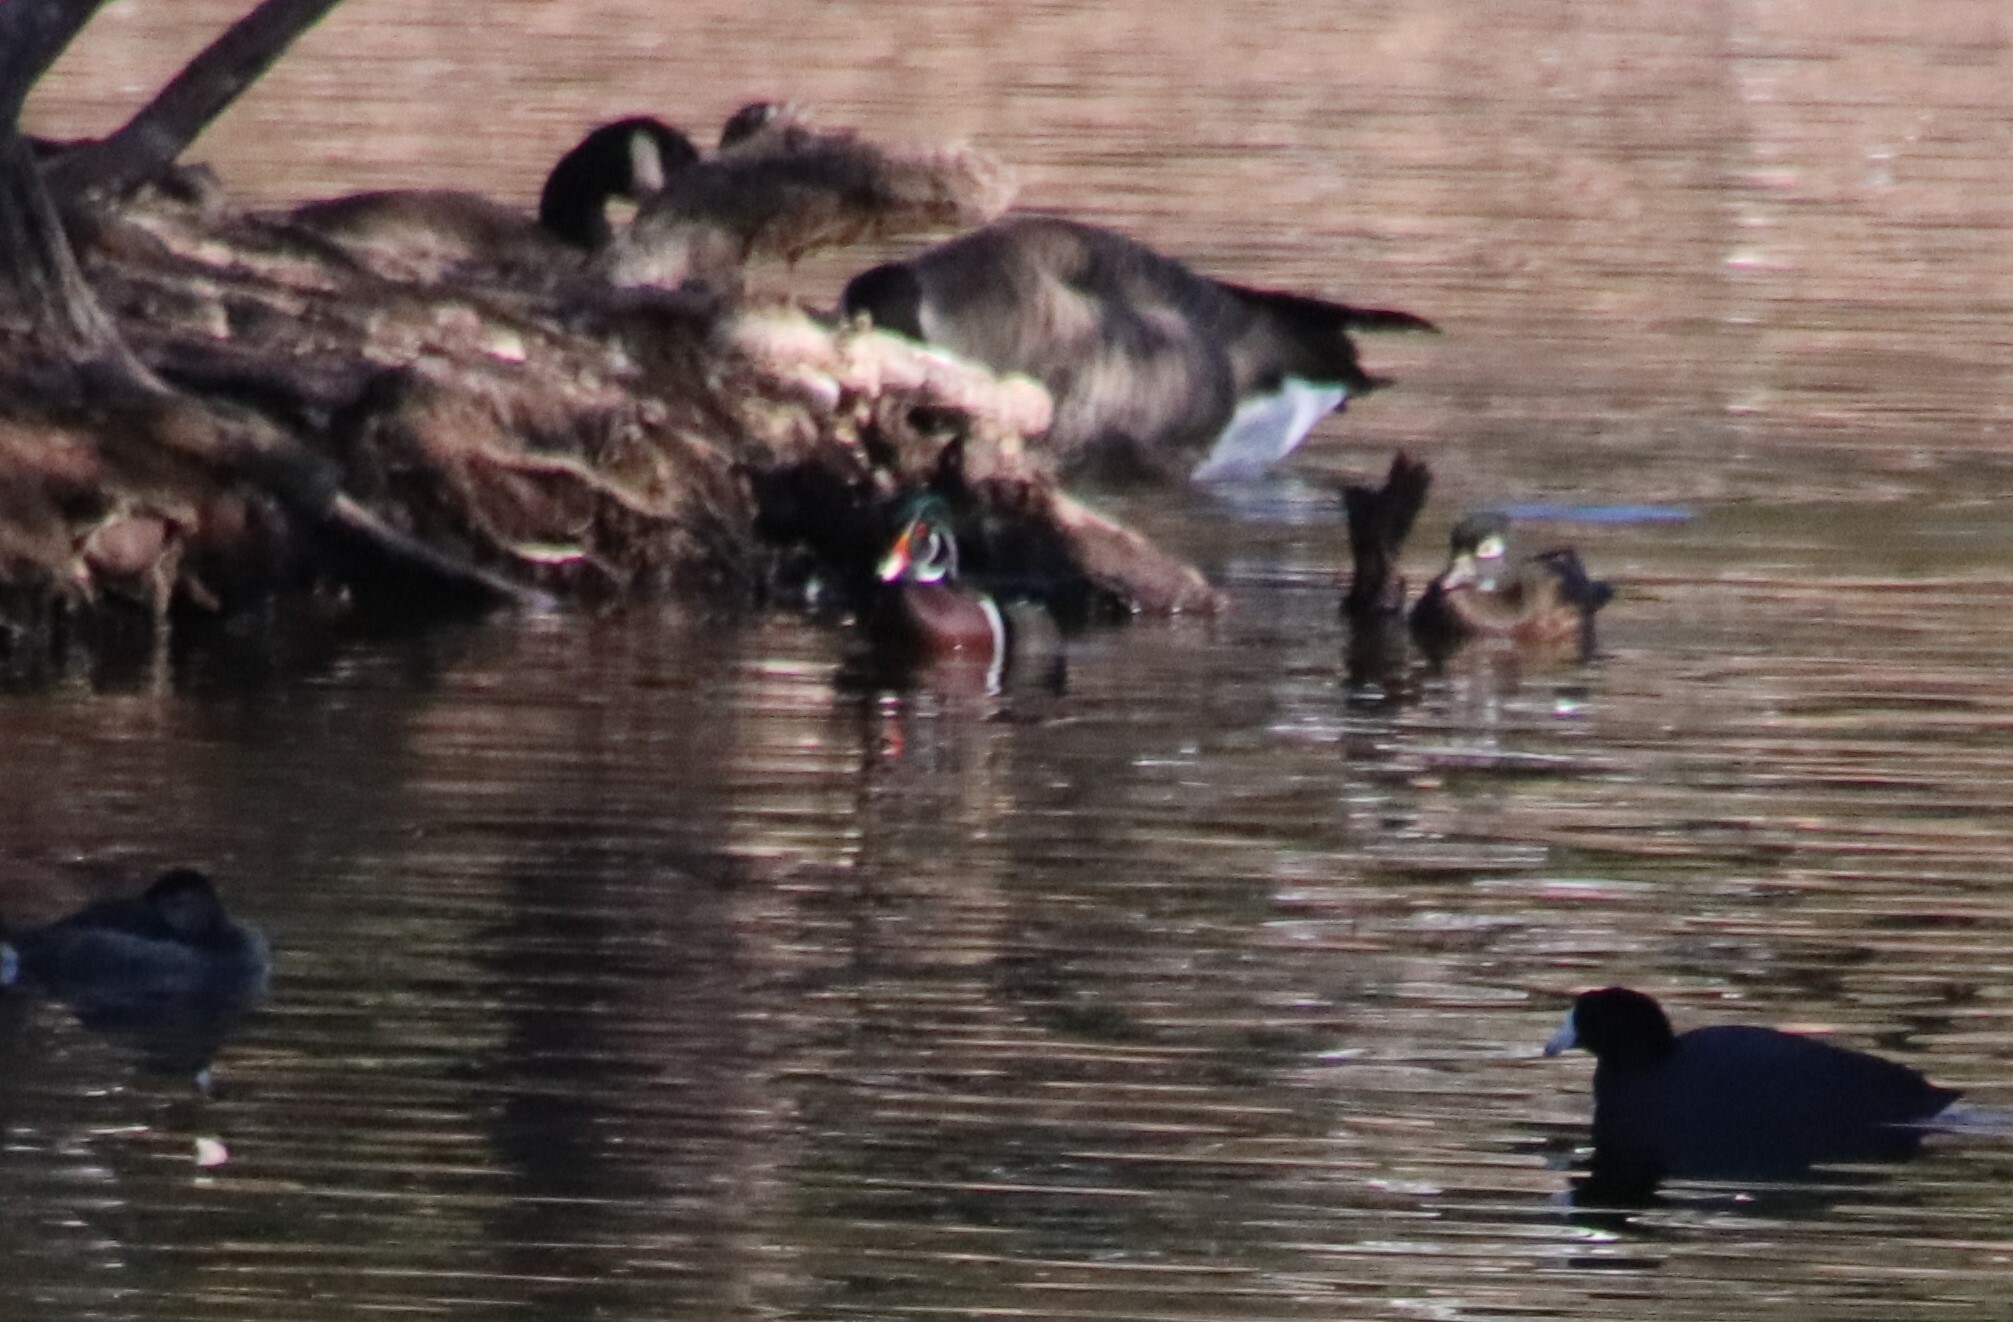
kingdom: Animalia
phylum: Chordata
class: Aves
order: Anseriformes
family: Anatidae
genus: Aix
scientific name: Aix sponsa
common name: Wood duck
